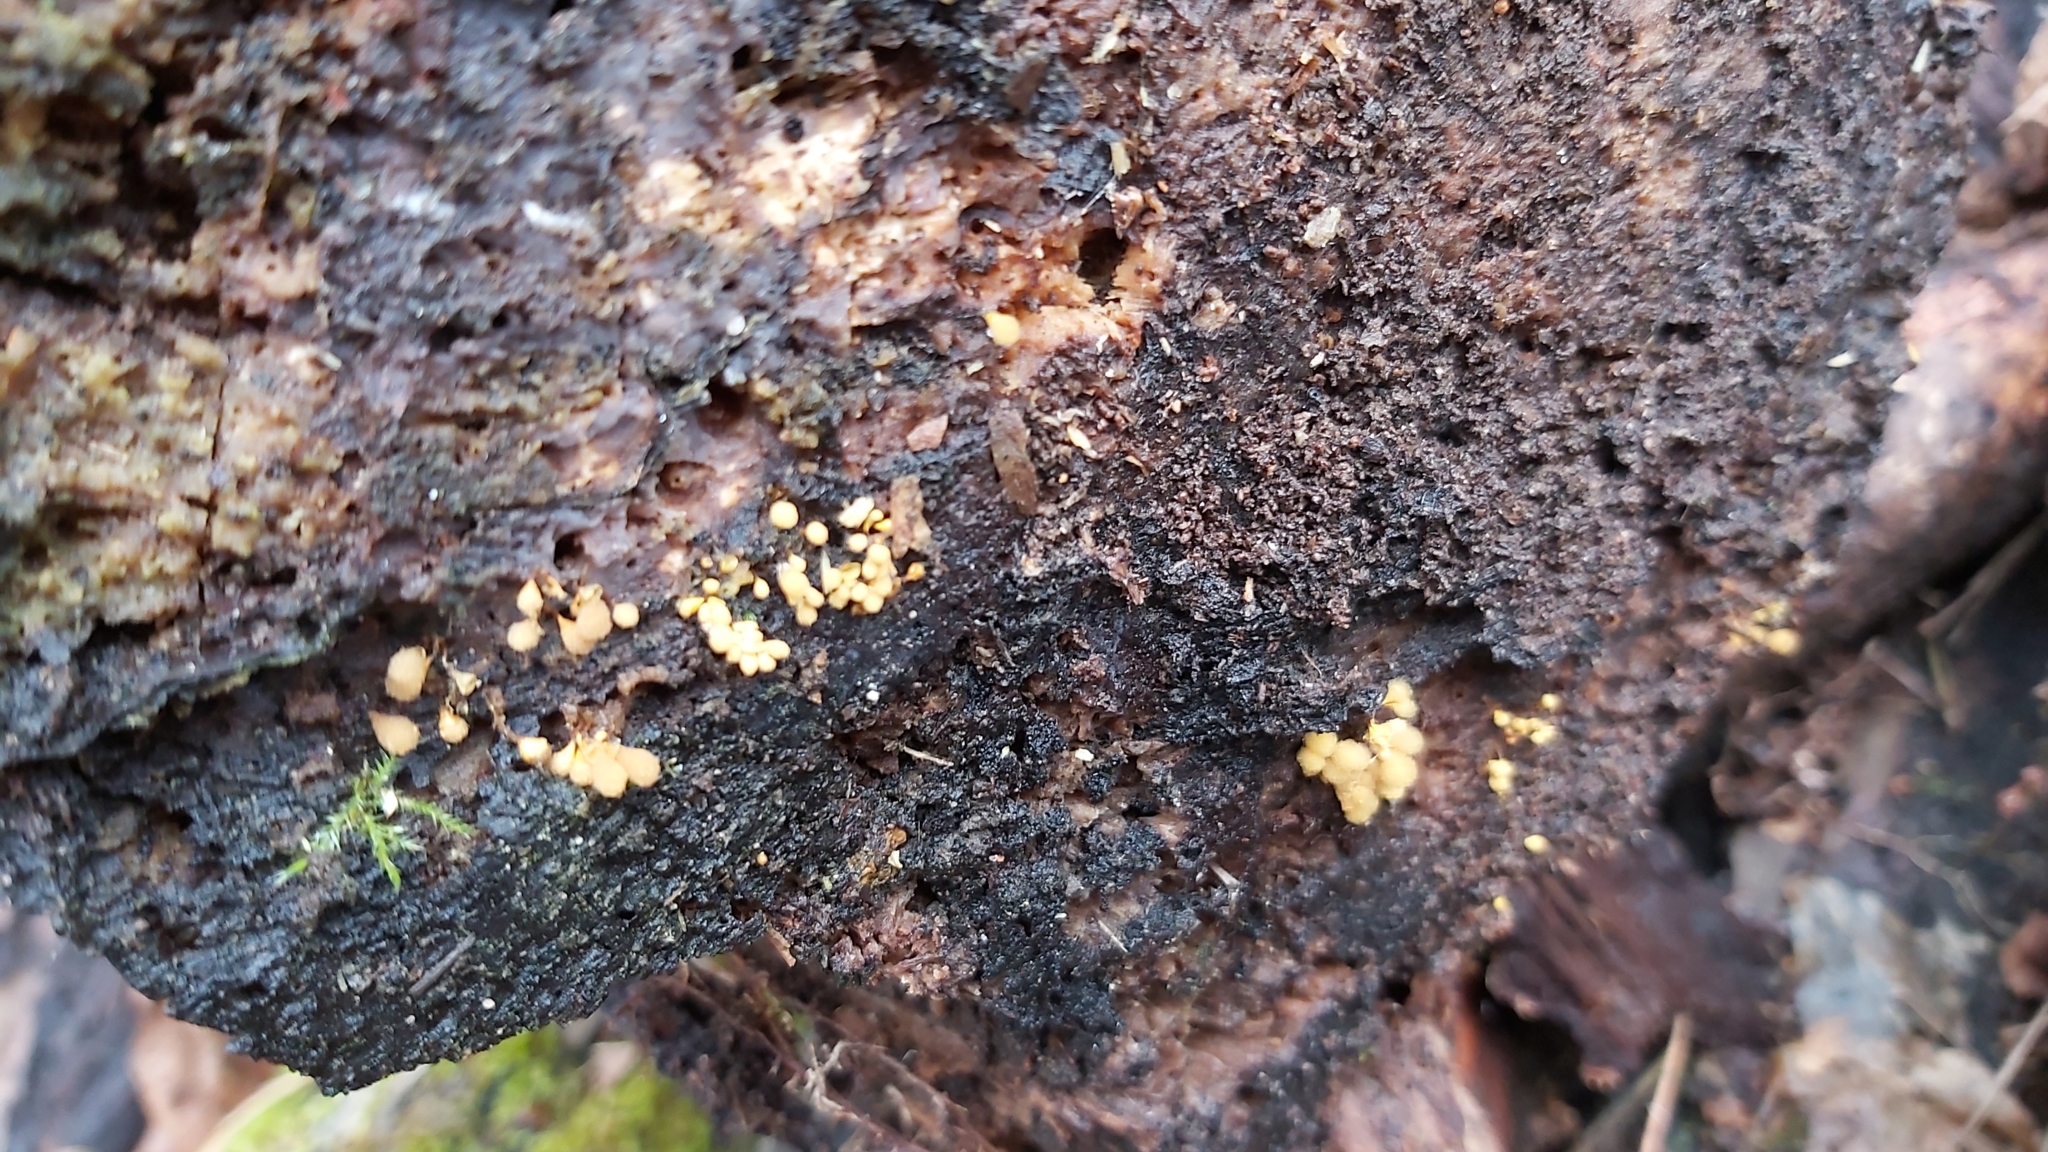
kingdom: Protozoa
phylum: Mycetozoa
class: Myxomycetes
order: Trichiales
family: Arcyriaceae
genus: Hemitrichia
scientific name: Hemitrichia calyculata
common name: Push pin slime mold
